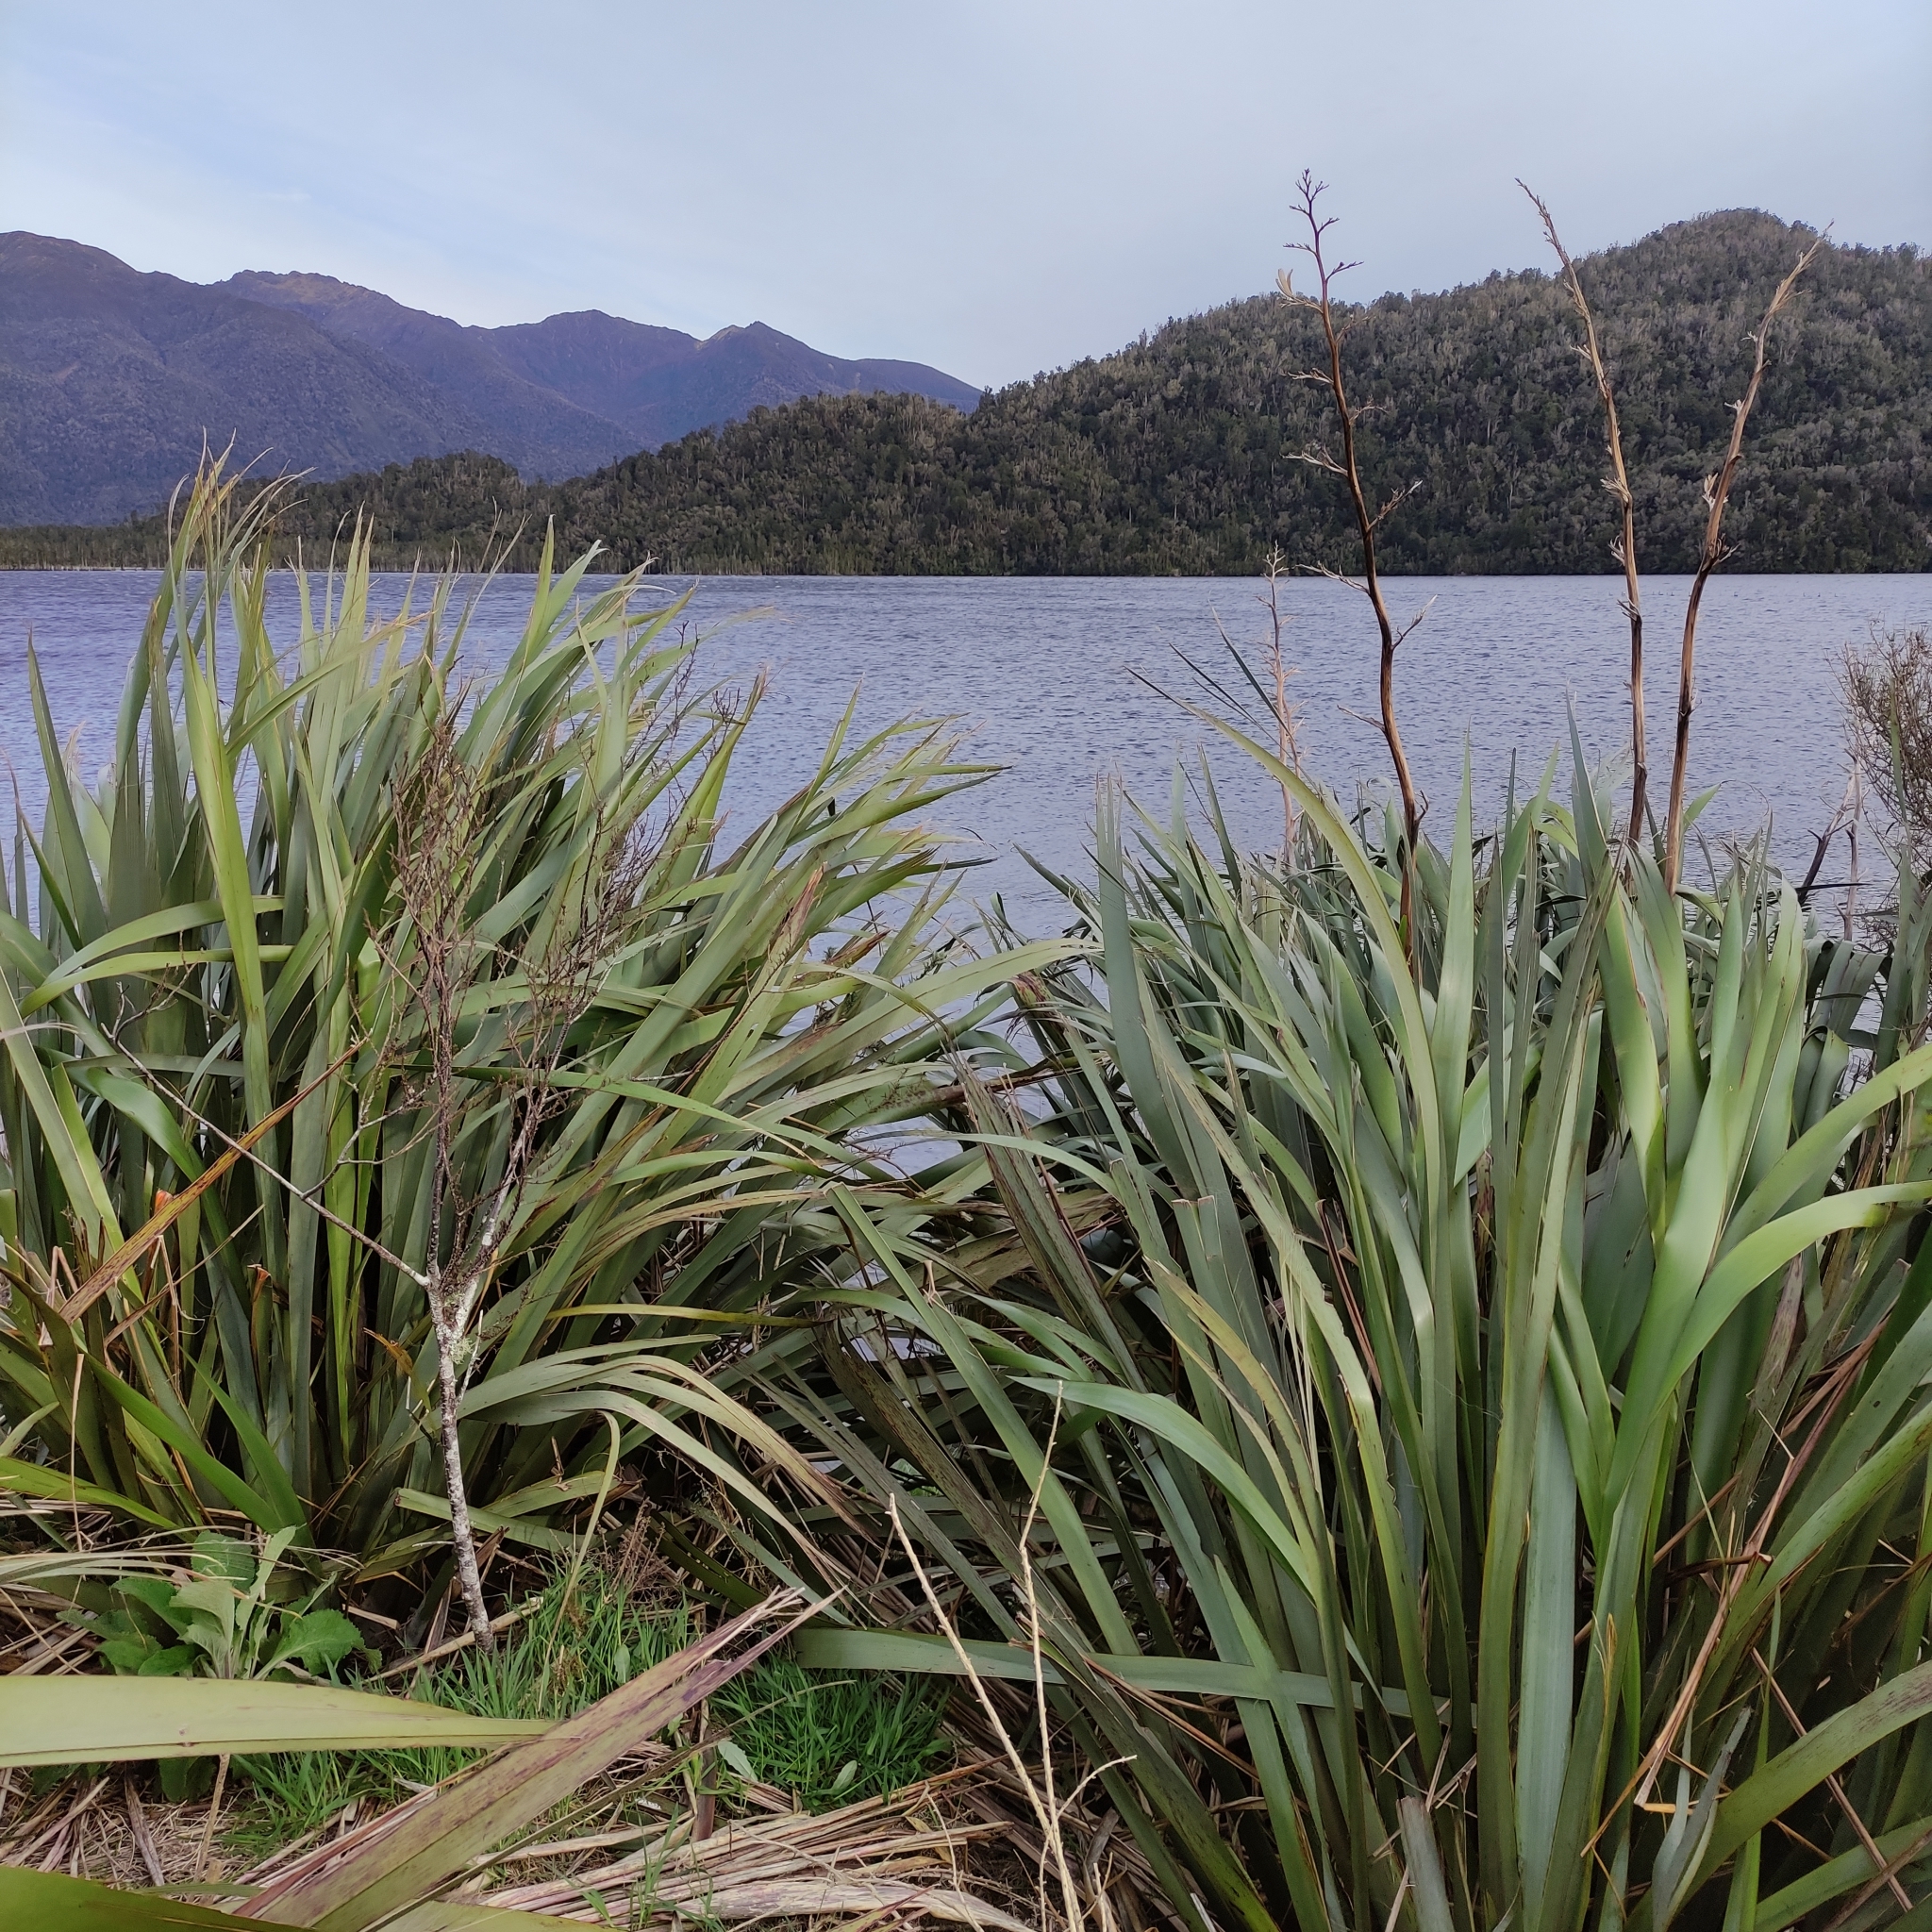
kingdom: Plantae
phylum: Tracheophyta
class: Liliopsida
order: Asparagales
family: Asphodelaceae
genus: Phormium
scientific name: Phormium tenax
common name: New zealand flax
